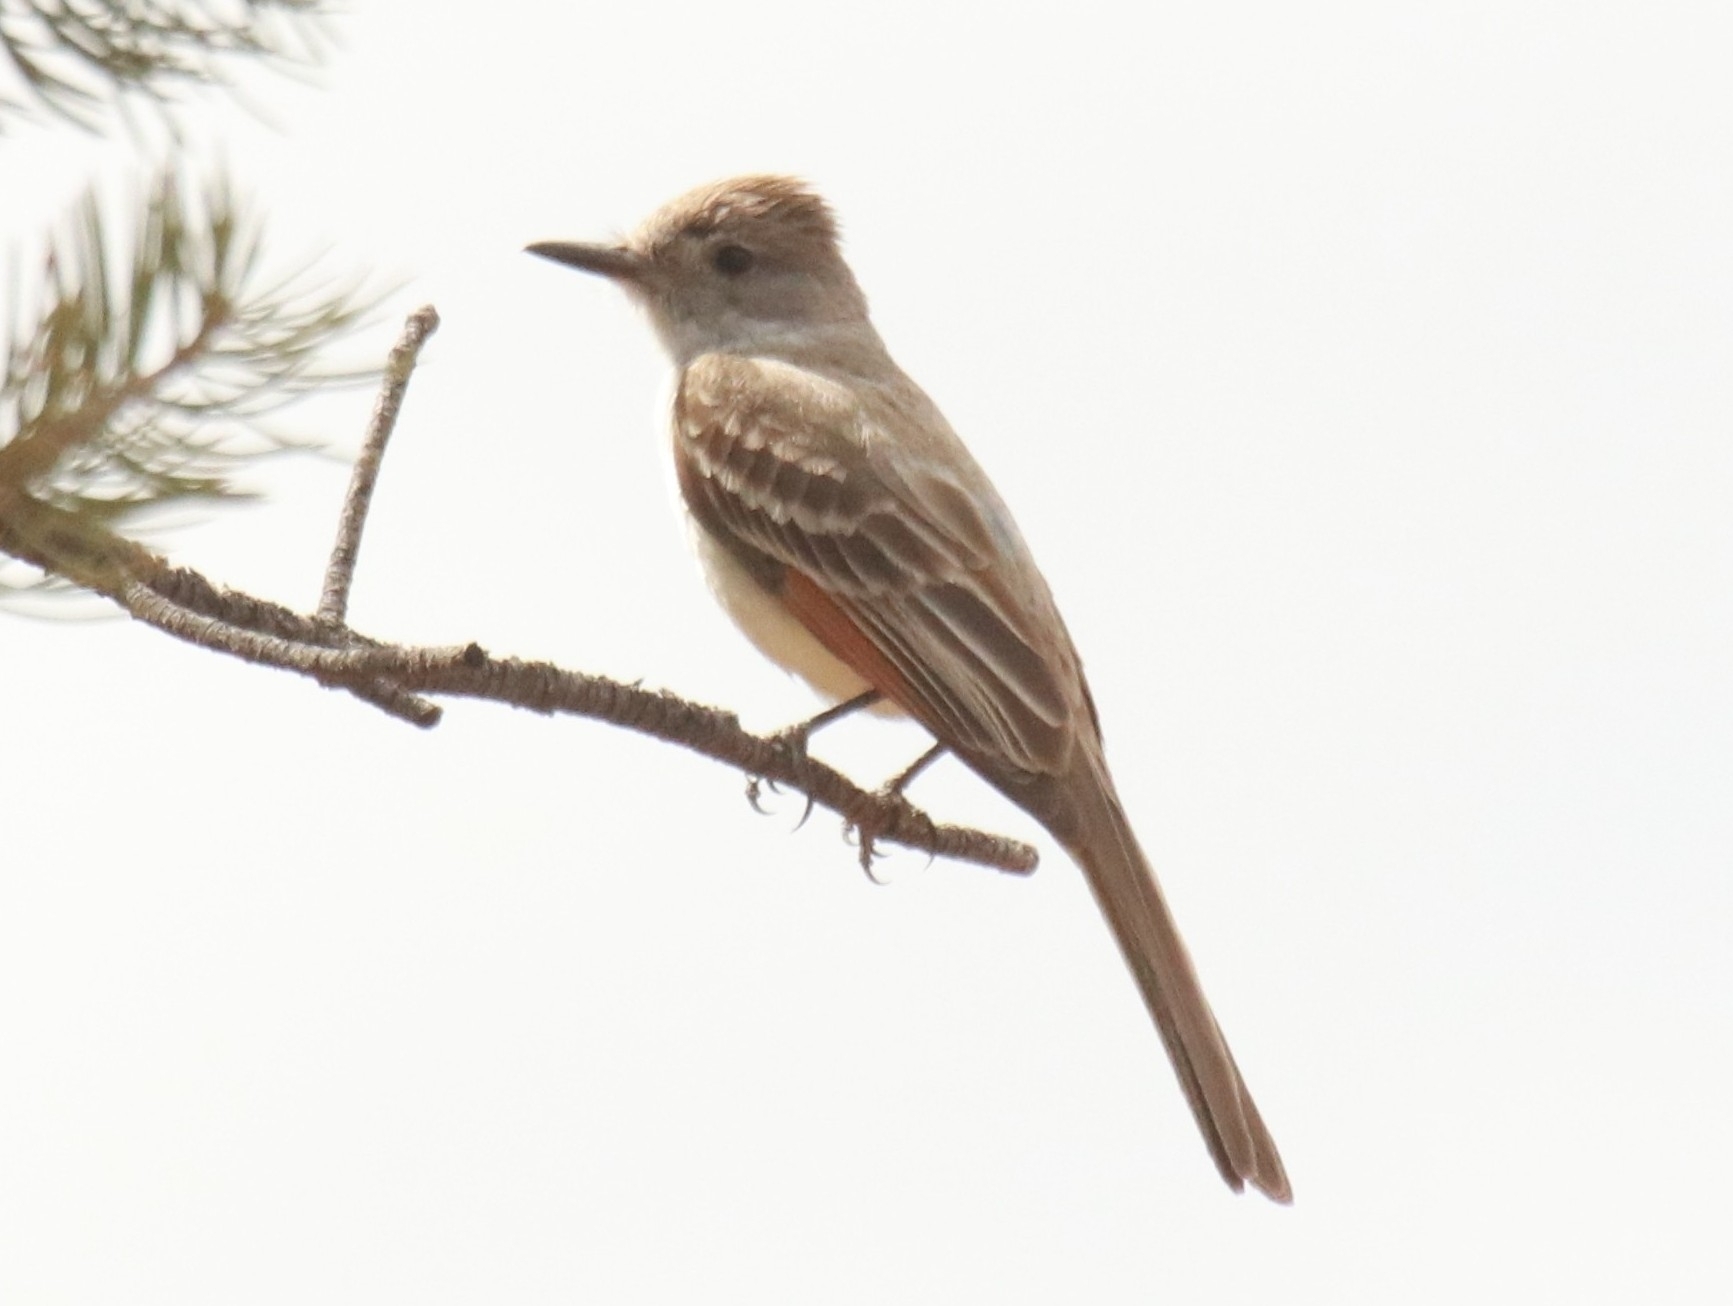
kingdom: Animalia
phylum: Chordata
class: Aves
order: Passeriformes
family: Tyrannidae
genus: Myiarchus
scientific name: Myiarchus cinerascens
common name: Ash-throated flycatcher
